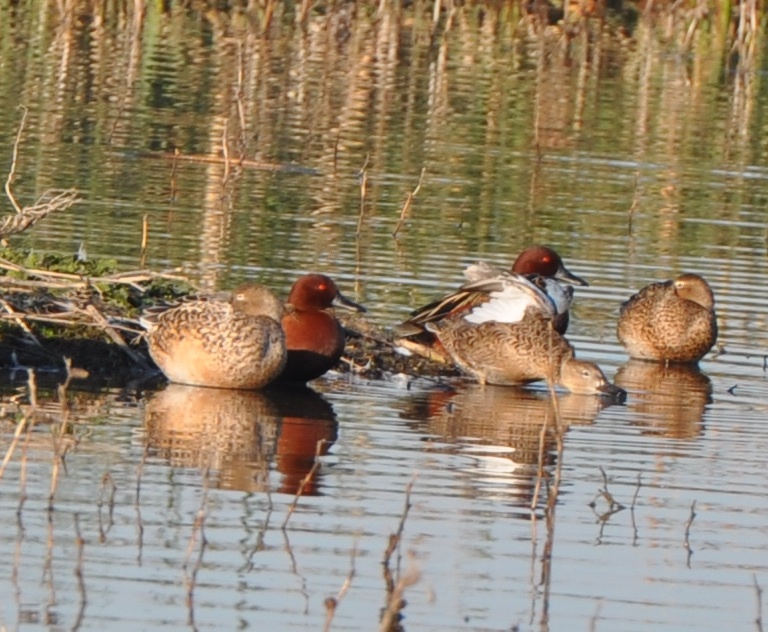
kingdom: Animalia
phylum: Chordata
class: Aves
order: Anseriformes
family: Anatidae
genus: Spatula
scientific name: Spatula cyanoptera
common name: Cinnamon teal
